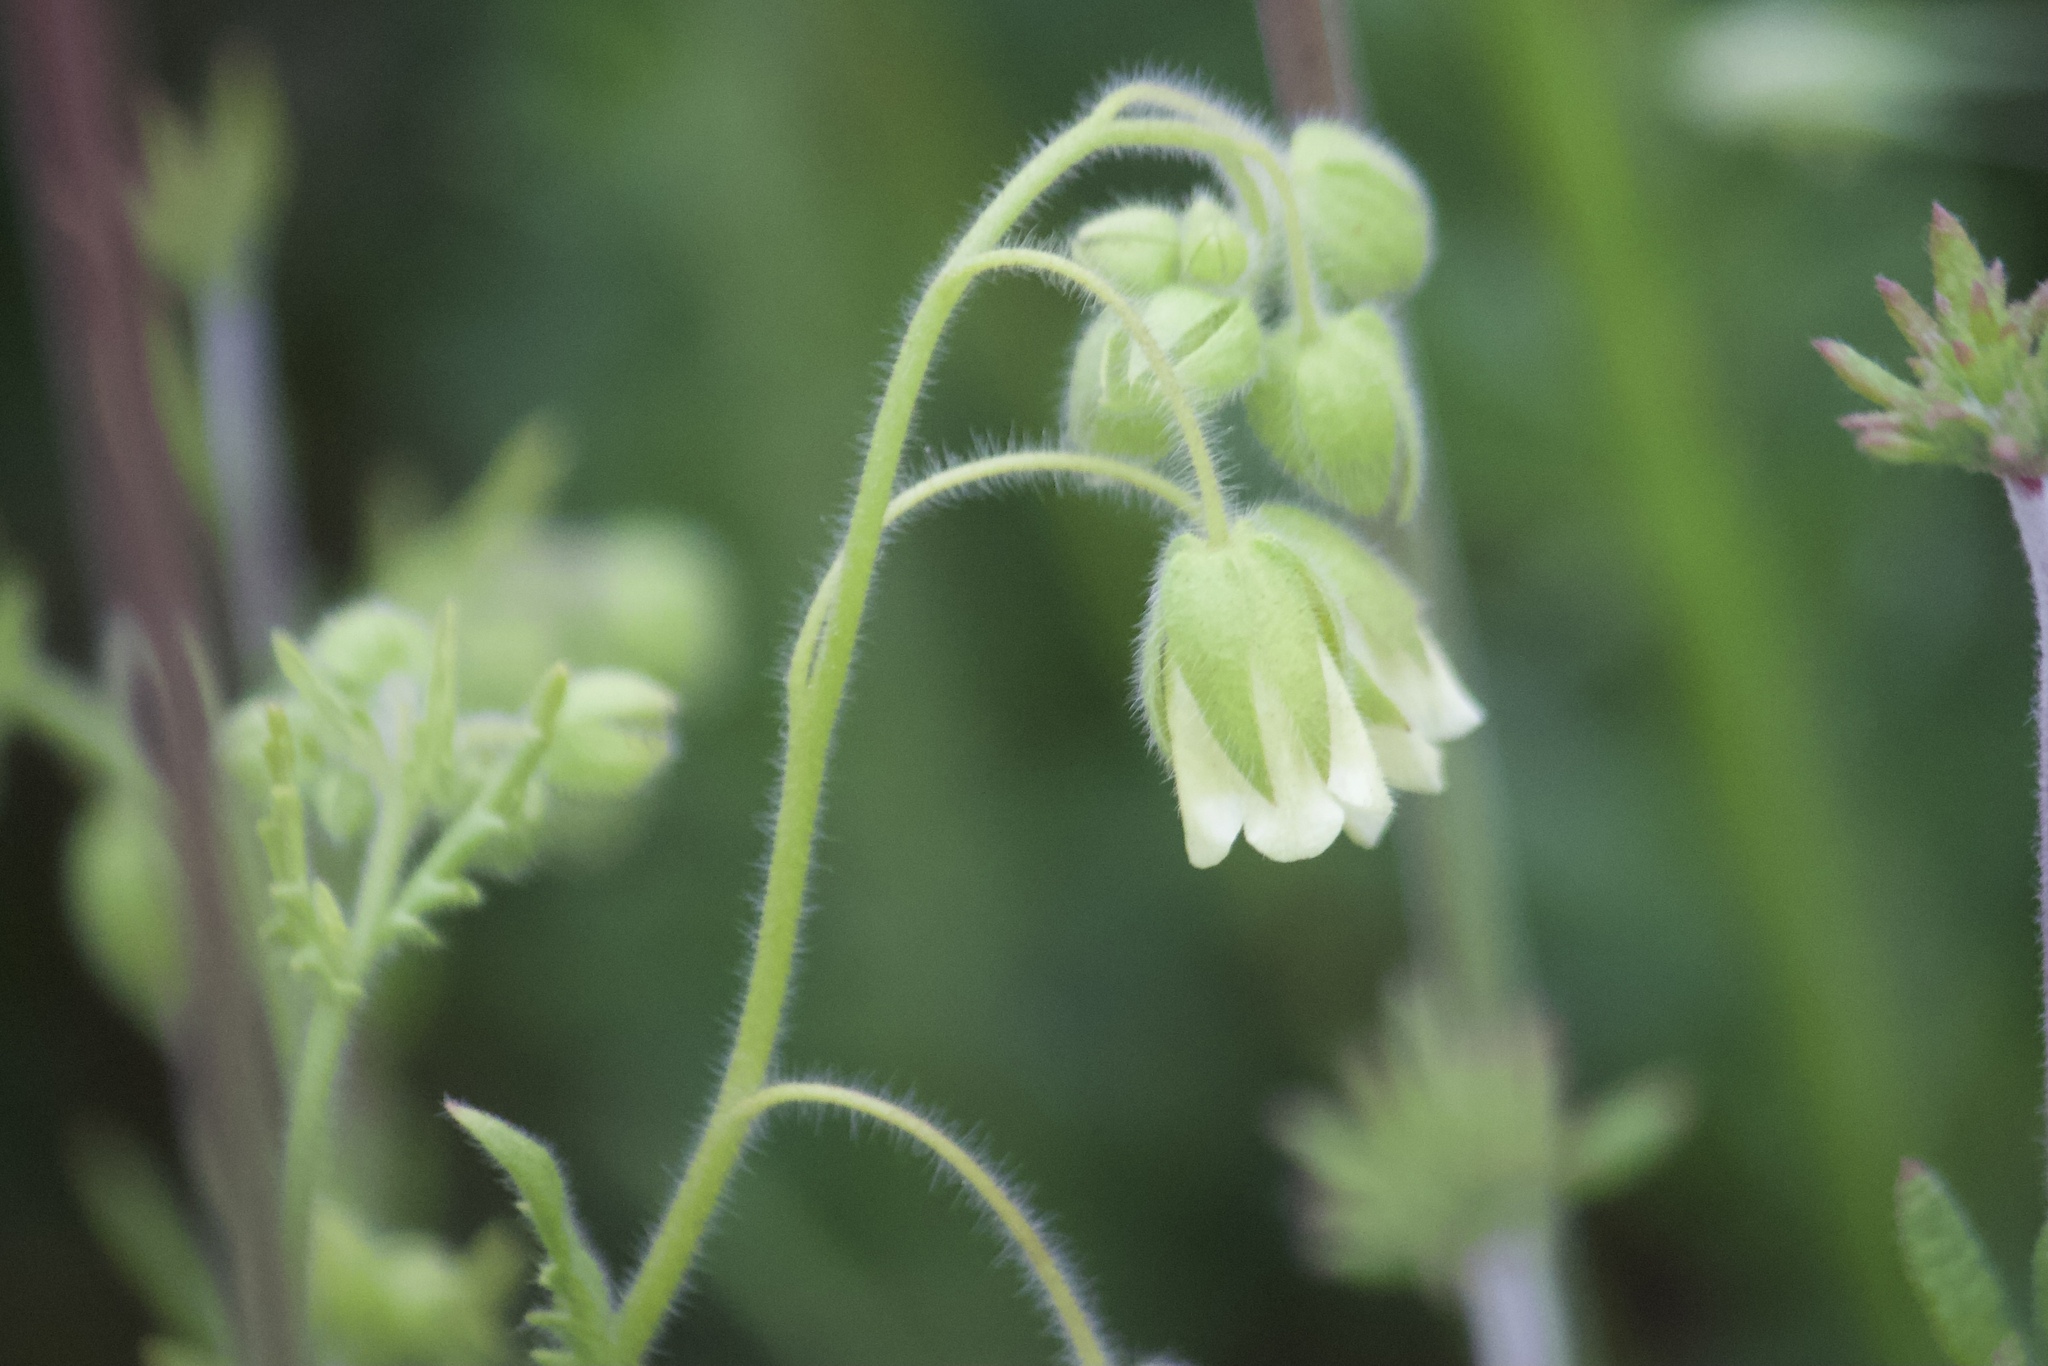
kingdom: Plantae
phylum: Tracheophyta
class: Magnoliopsida
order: Boraginales
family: Hydrophyllaceae
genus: Emmenanthe
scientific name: Emmenanthe penduliflora
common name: Whispering-bells
